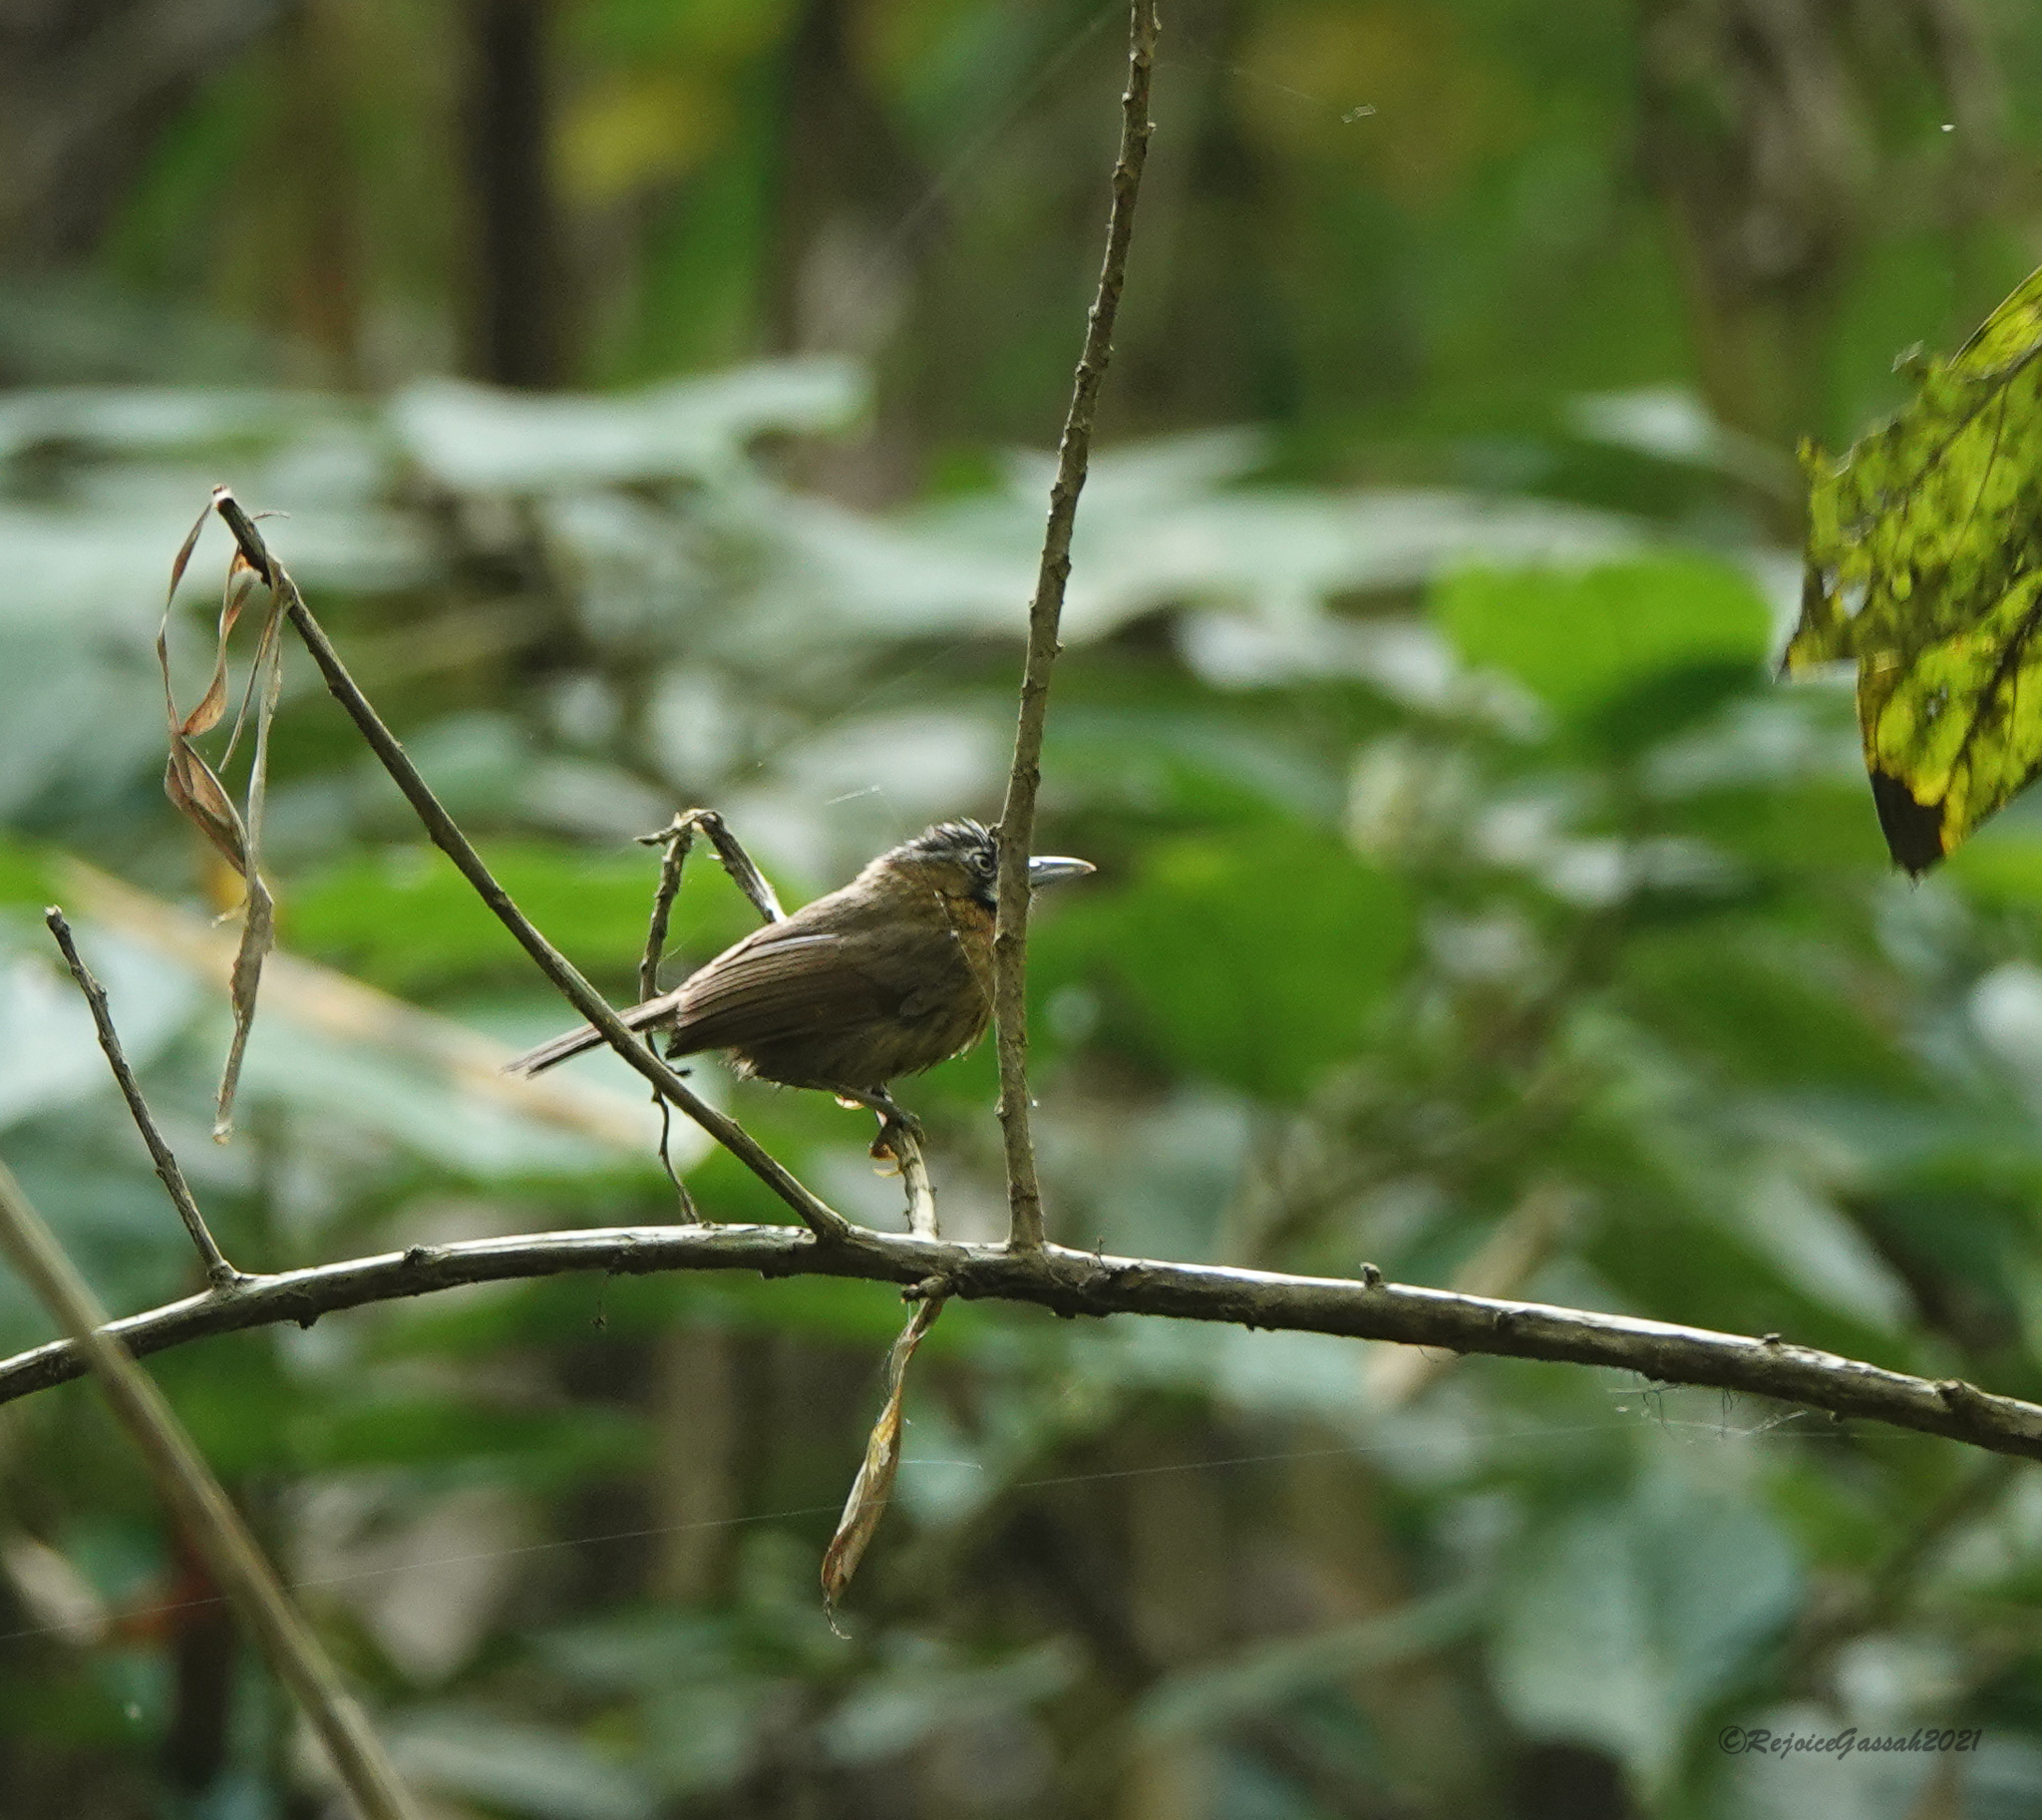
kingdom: Animalia
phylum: Chordata
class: Aves
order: Passeriformes
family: Timaliidae
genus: Stachyris
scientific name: Stachyris nigriceps
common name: Grey-throated babbler
